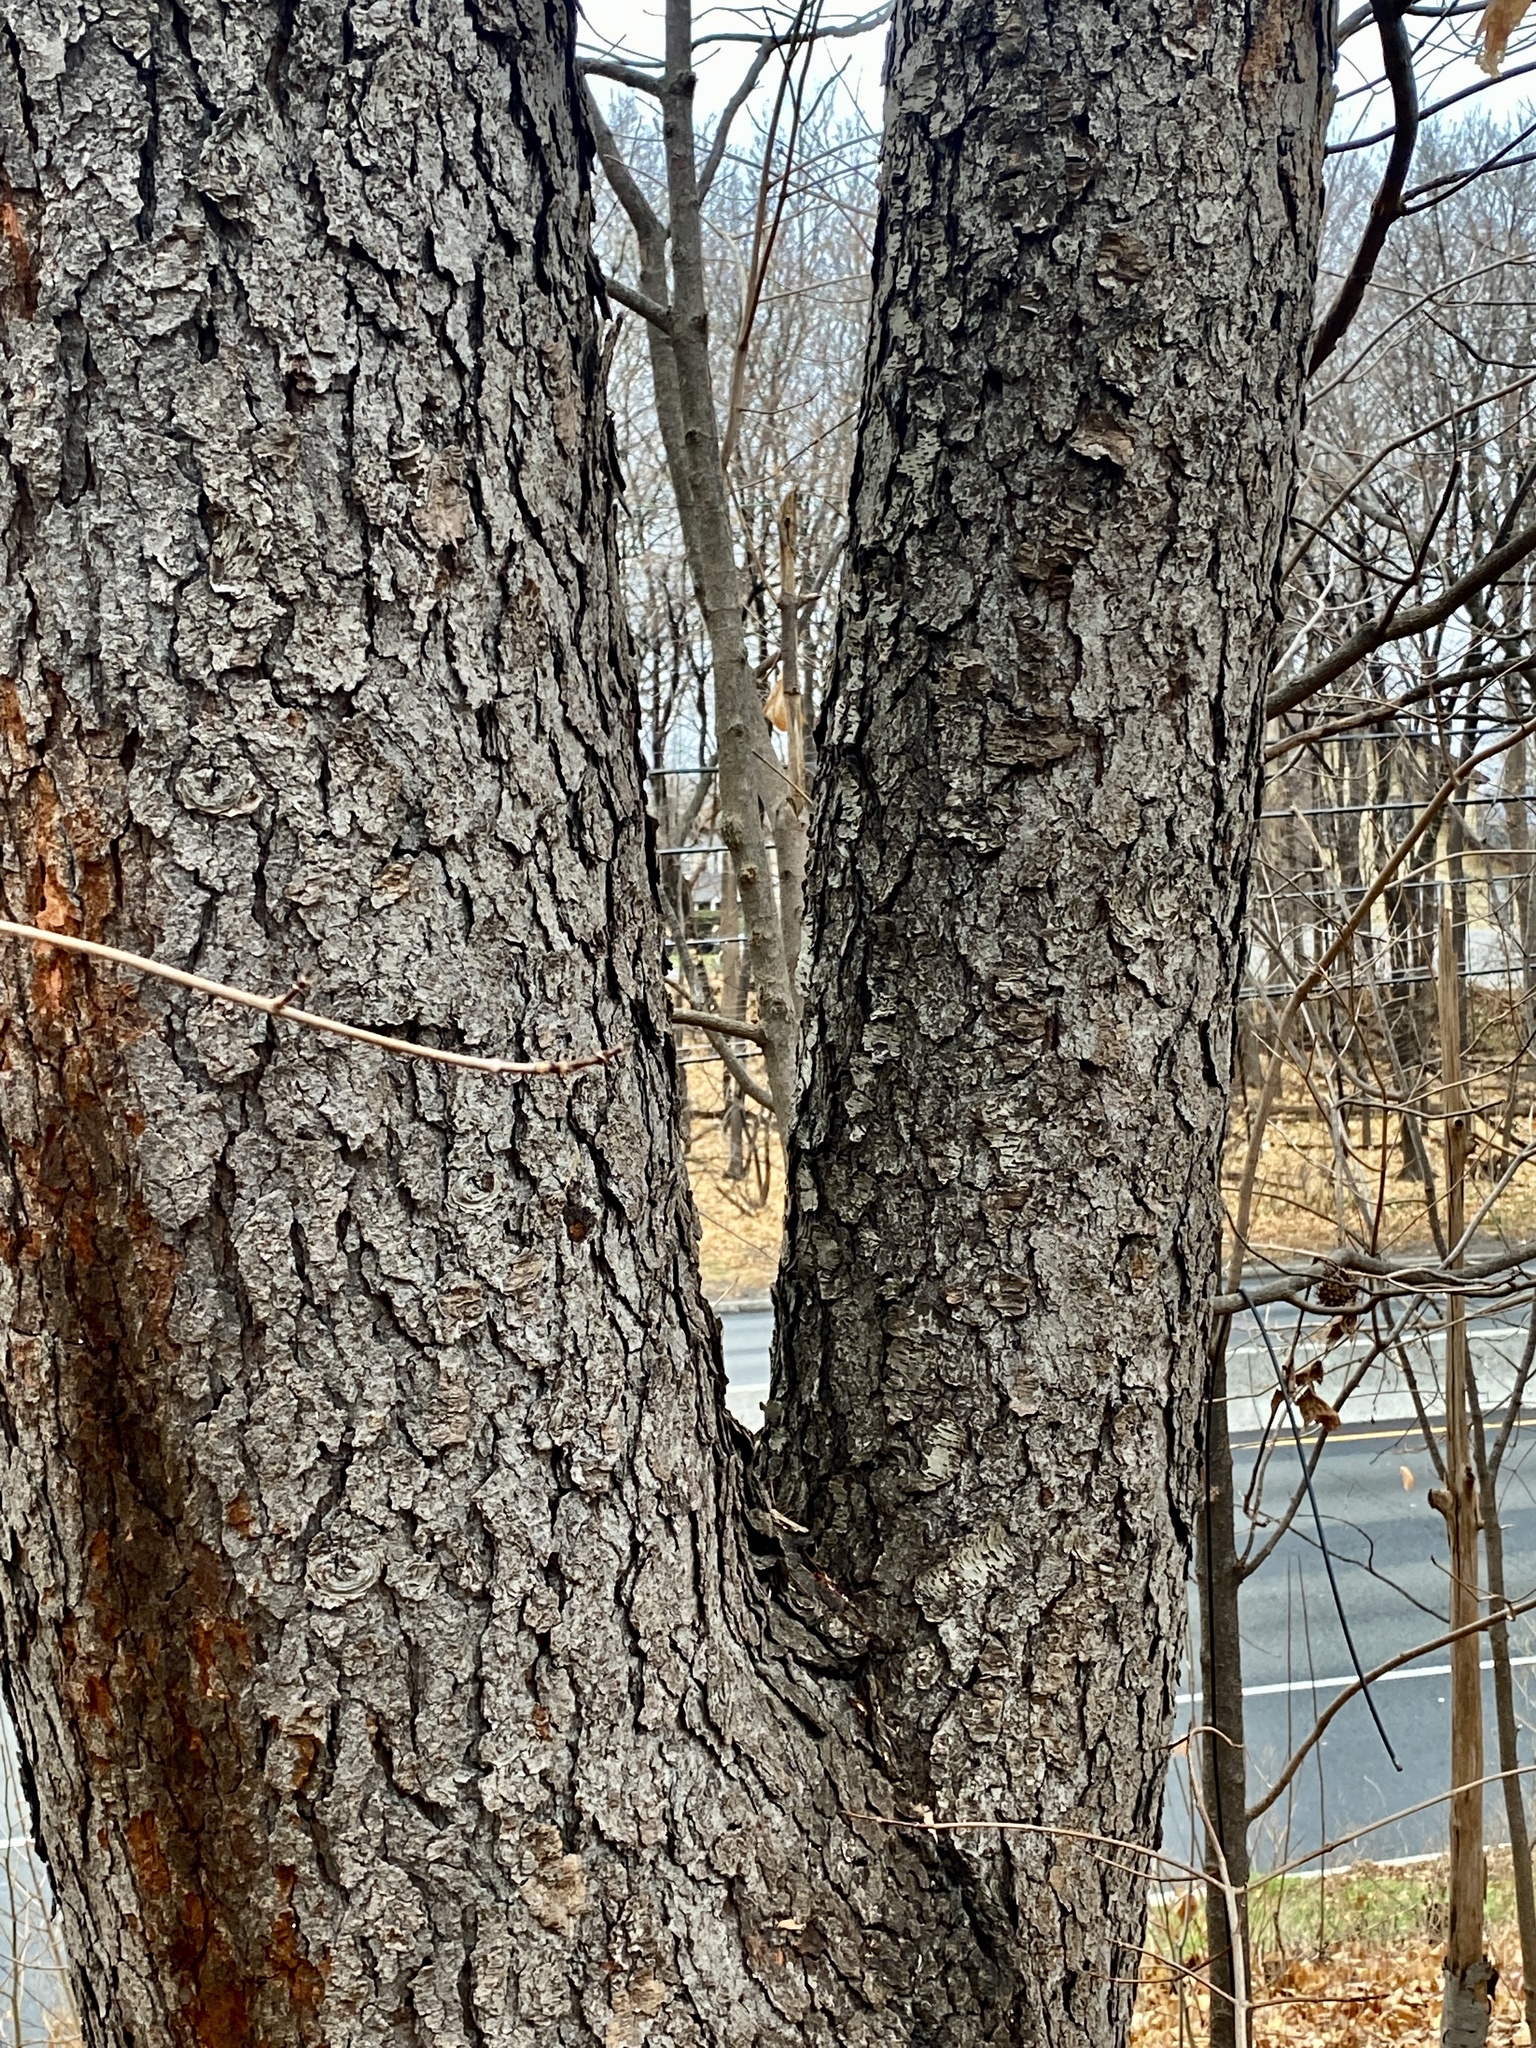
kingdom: Plantae
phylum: Tracheophyta
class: Magnoliopsida
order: Rosales
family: Rosaceae
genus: Prunus
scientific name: Prunus serotina
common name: Black cherry
